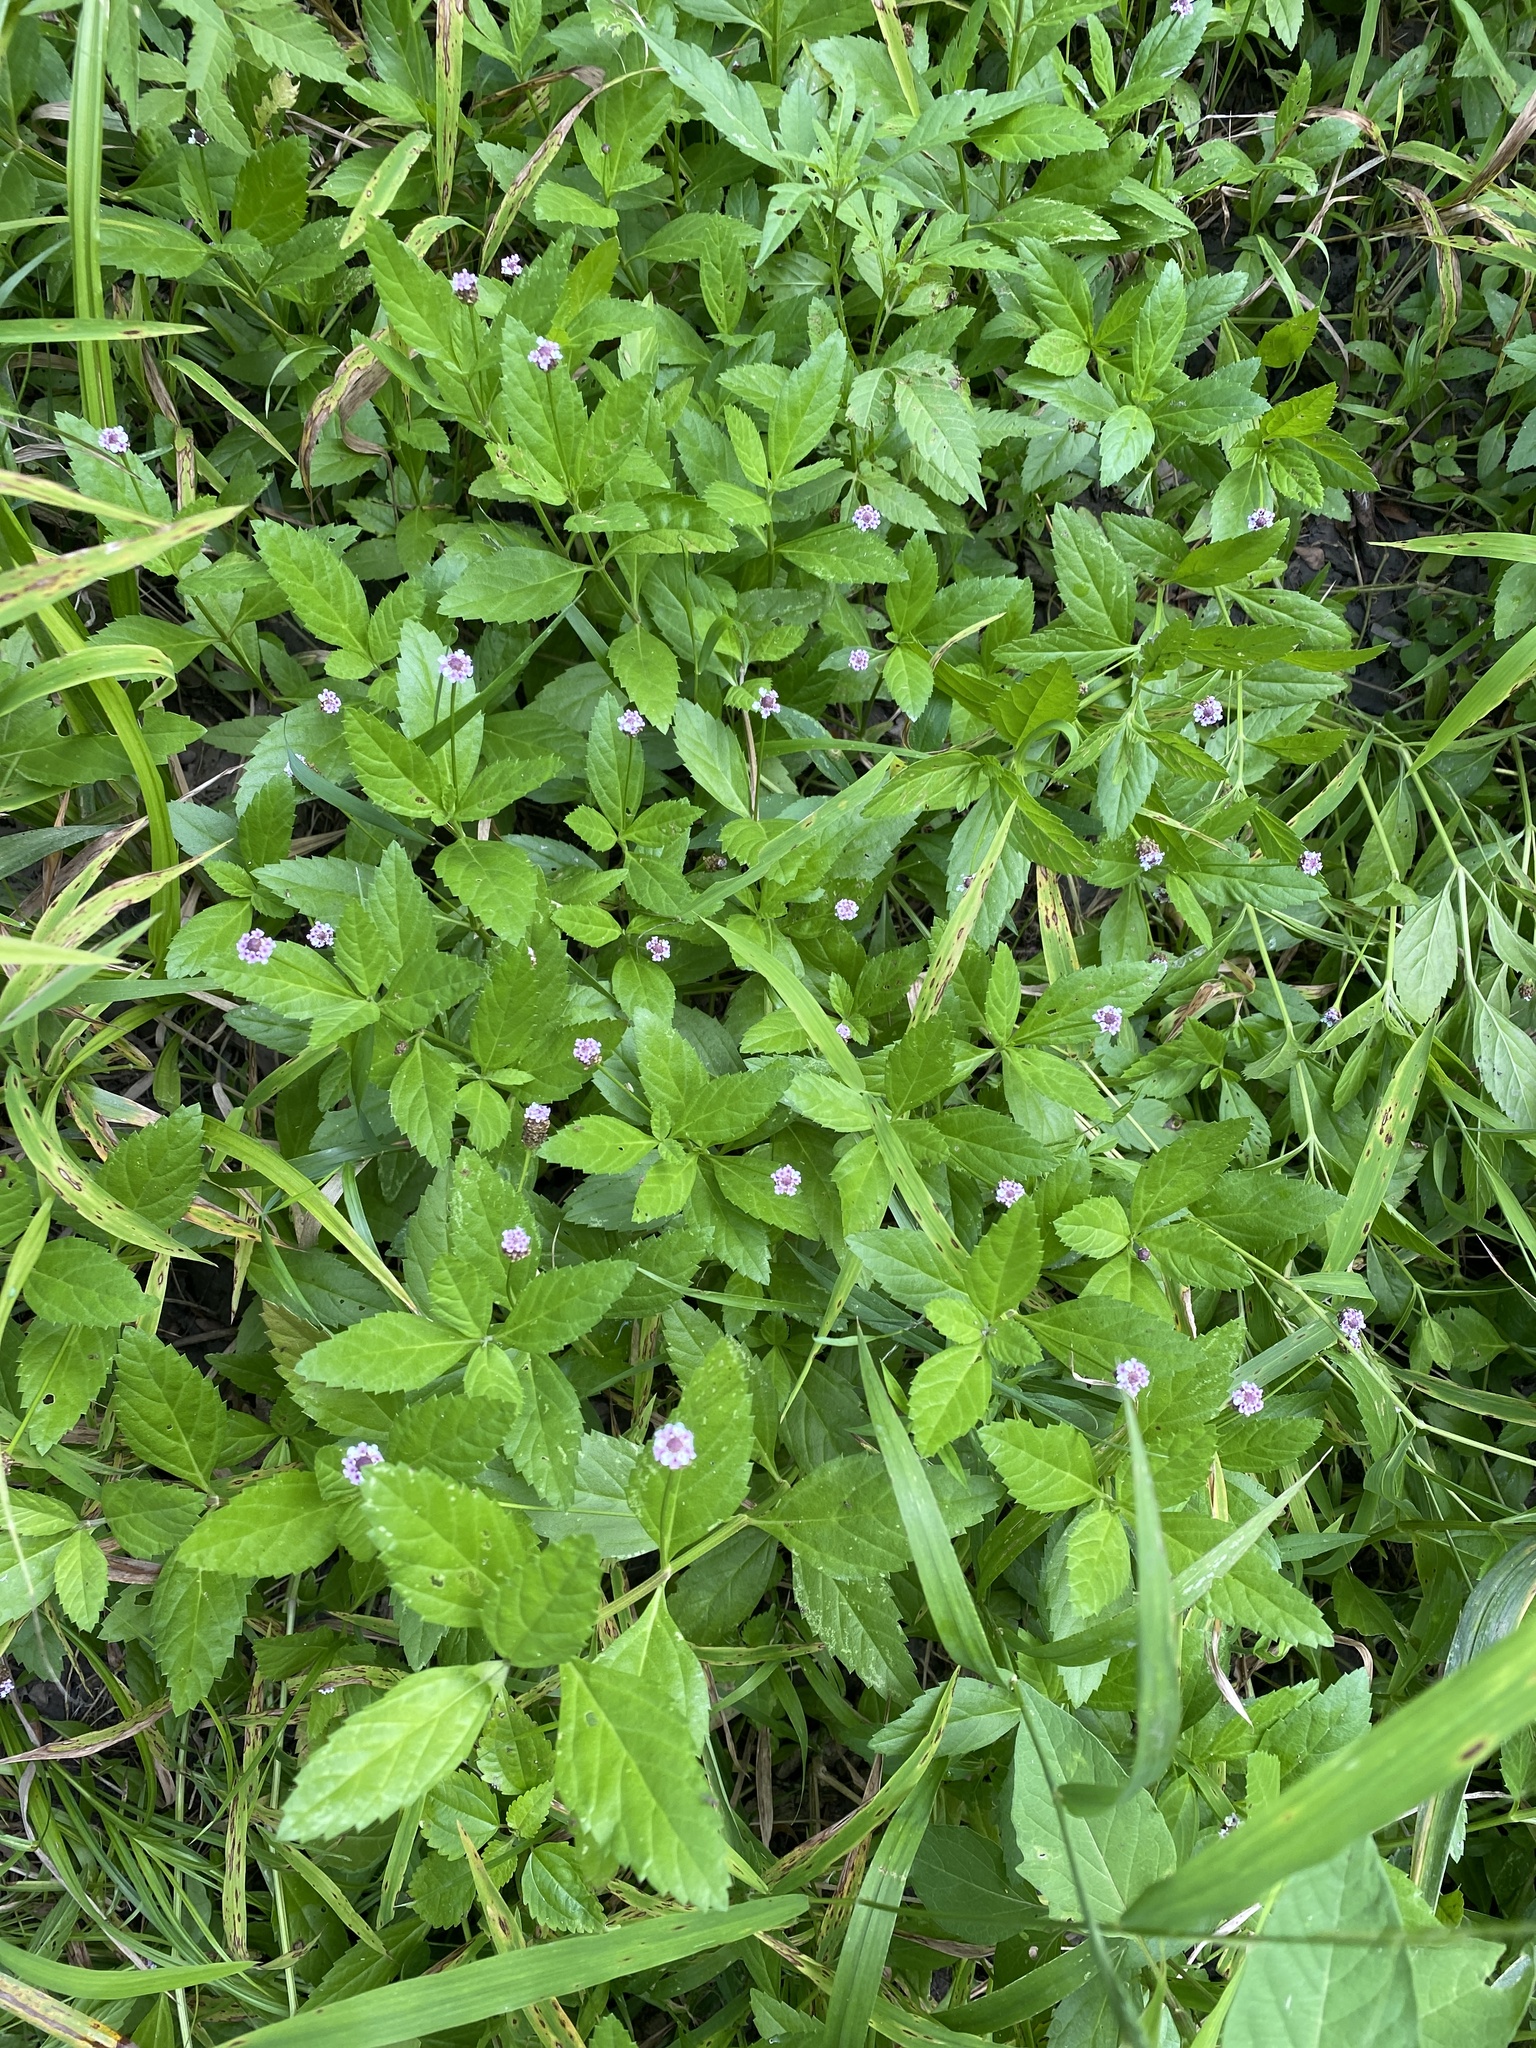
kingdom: Plantae
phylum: Tracheophyta
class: Magnoliopsida
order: Lamiales
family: Verbenaceae
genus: Phyla
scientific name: Phyla lanceolata
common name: Northern fogfruit
